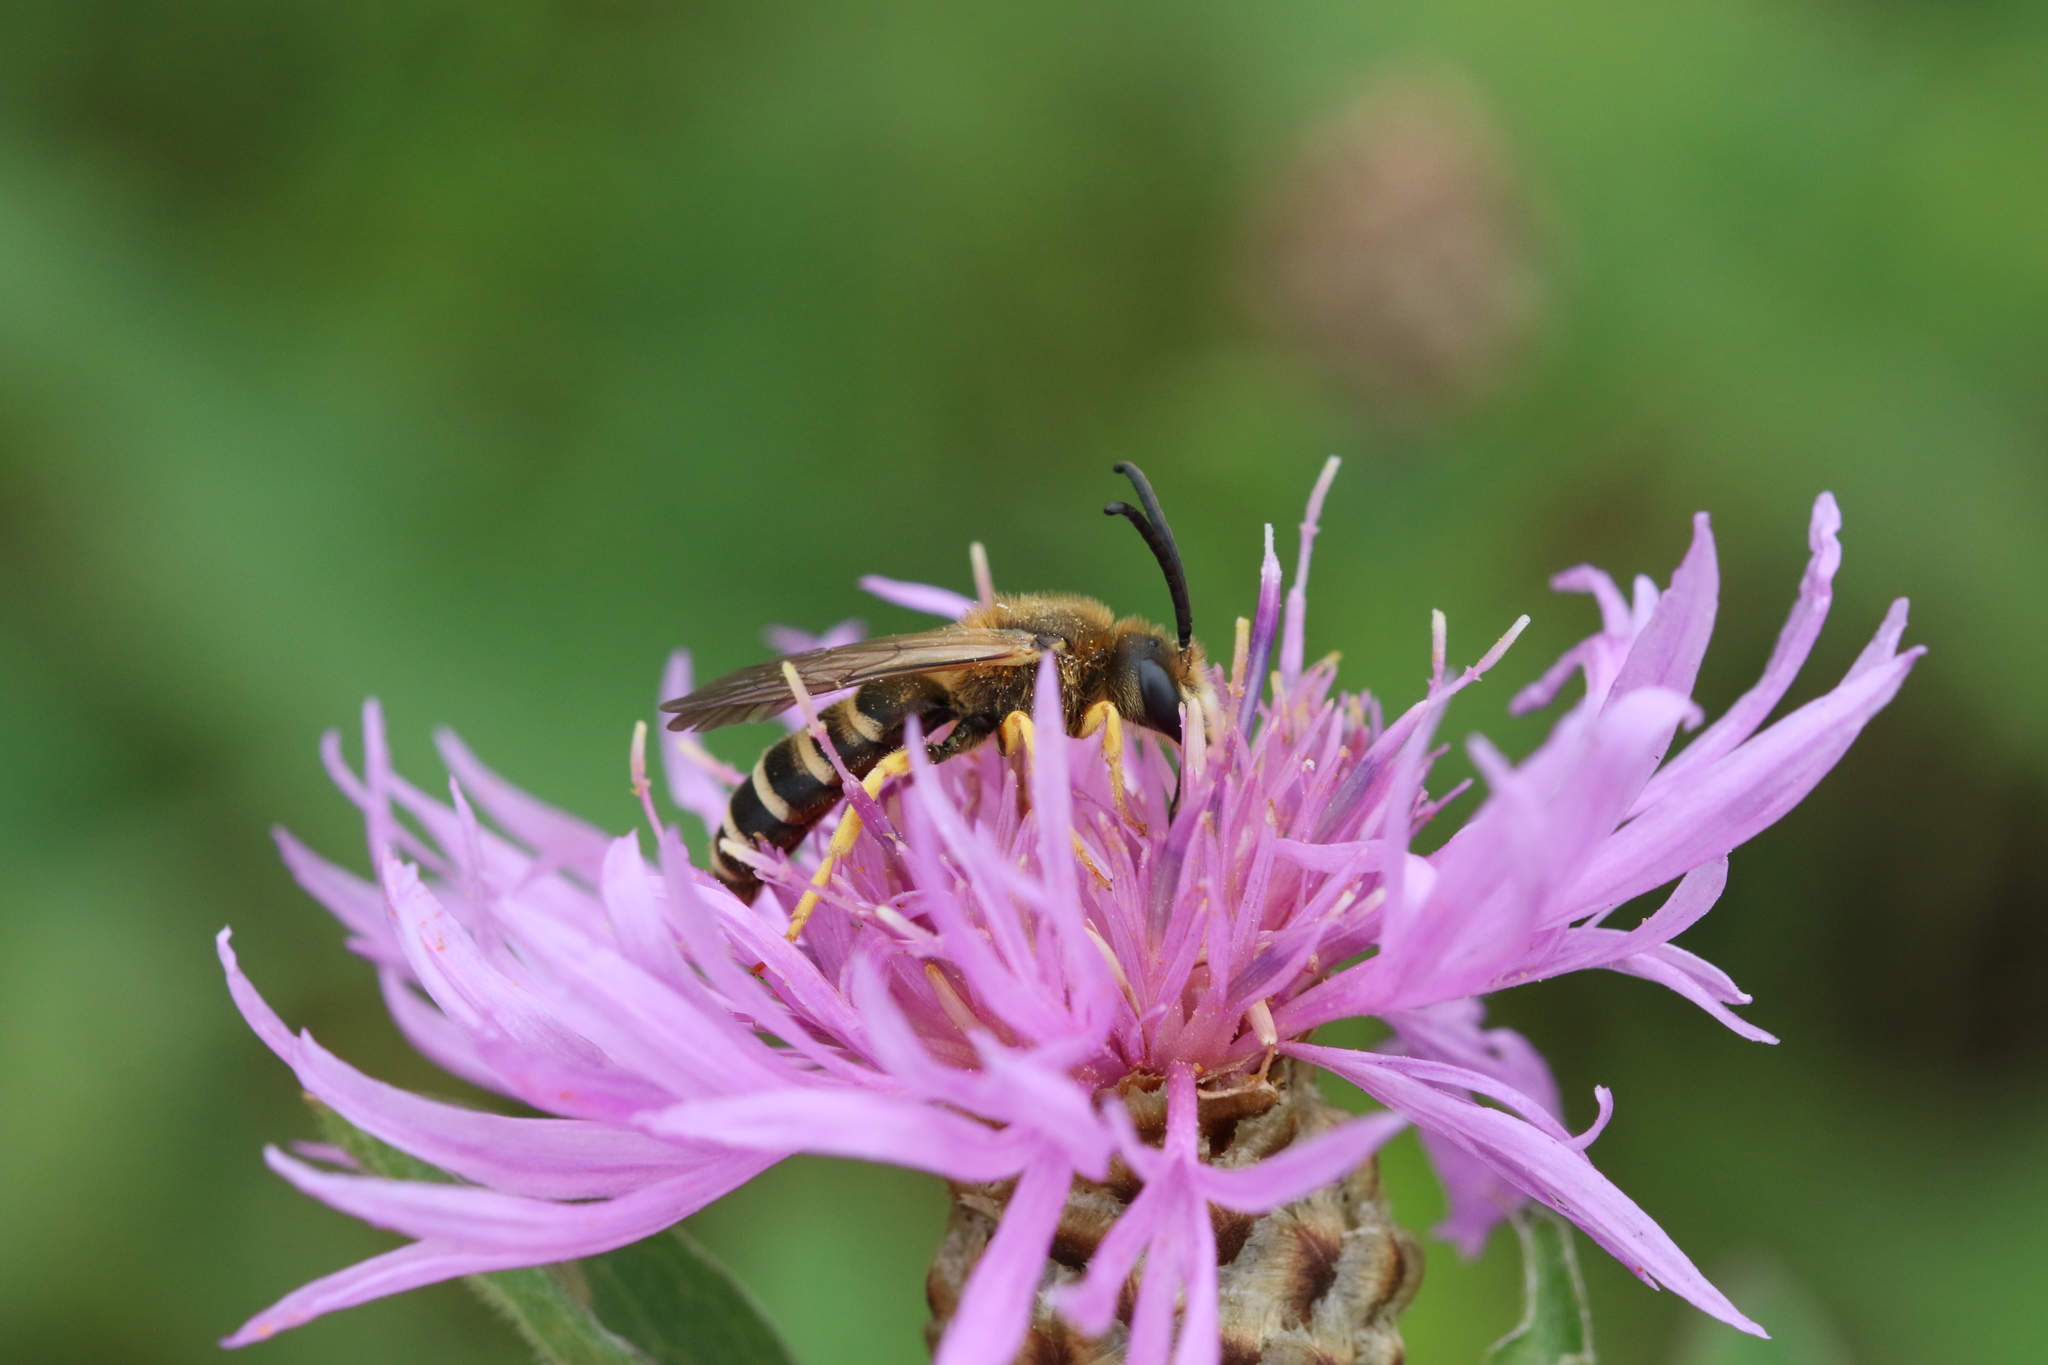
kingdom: Animalia
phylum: Arthropoda
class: Insecta
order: Hymenoptera
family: Halictidae
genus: Halictus
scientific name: Halictus scabiosae
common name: Great banded furrow bee
